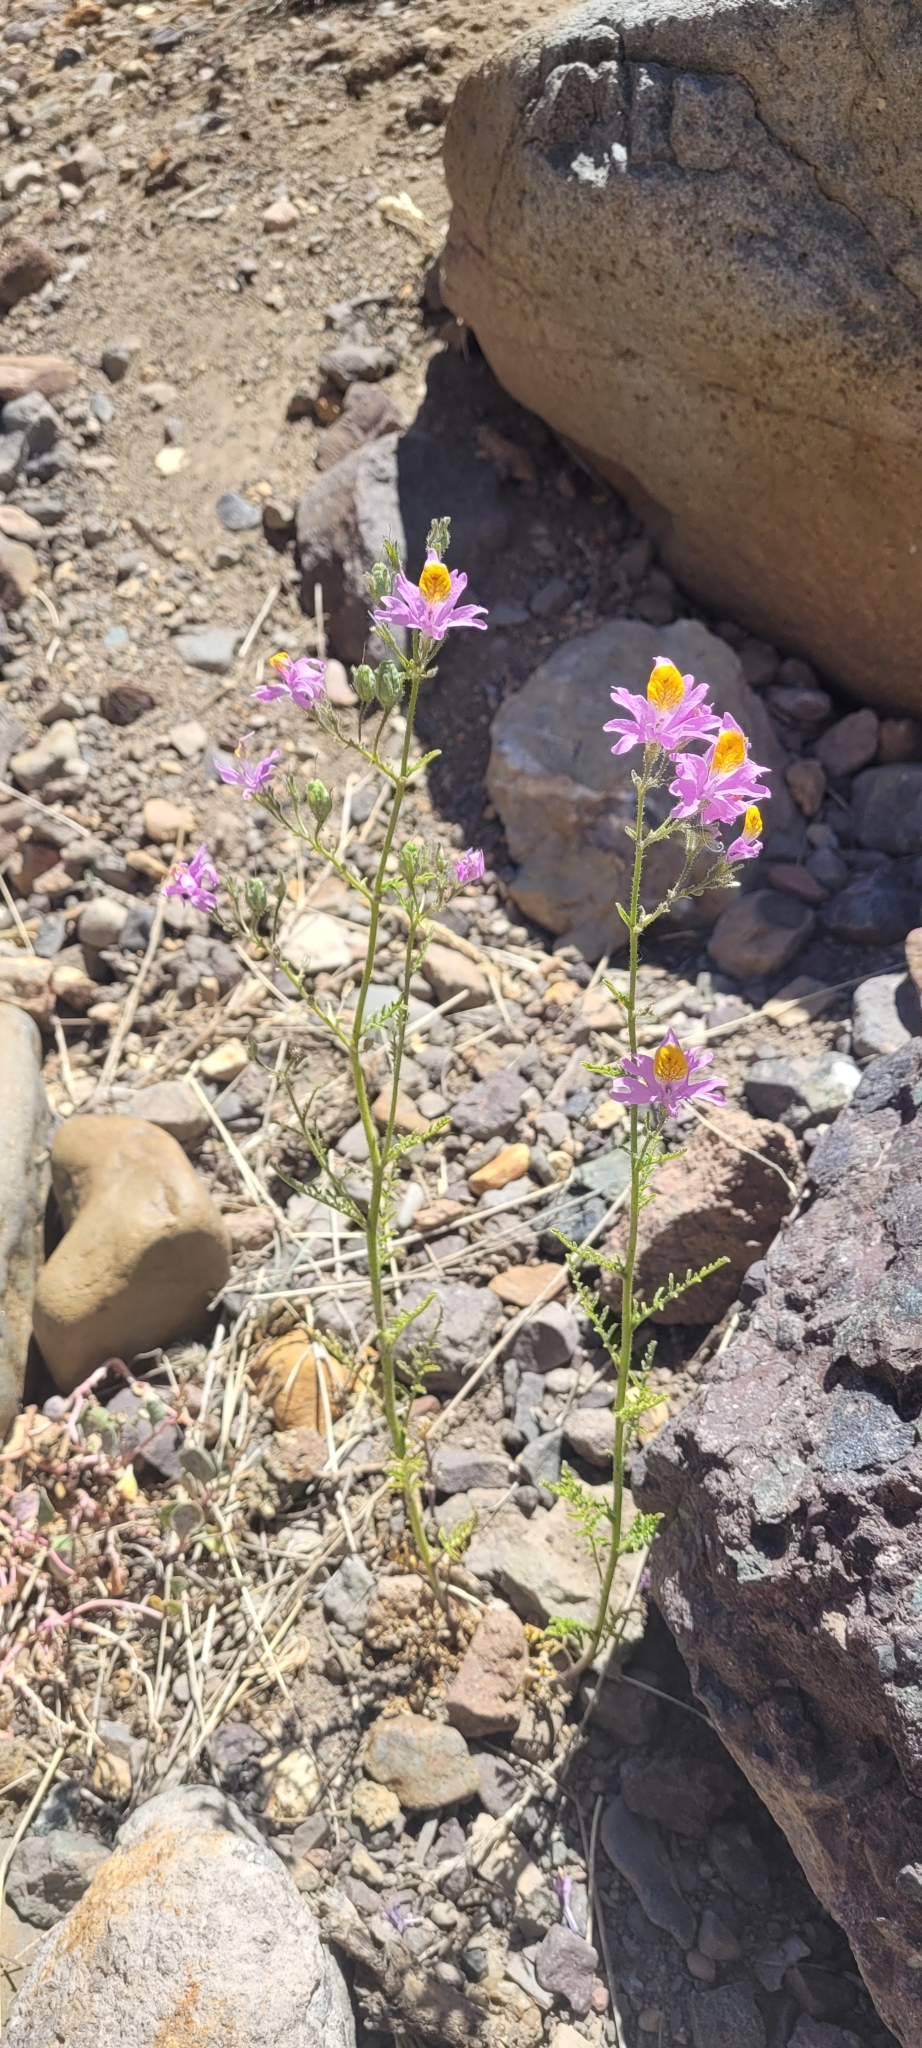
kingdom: Plantae
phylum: Tracheophyta
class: Magnoliopsida
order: Solanales
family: Solanaceae
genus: Schizanthus
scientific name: Schizanthus grahamii
